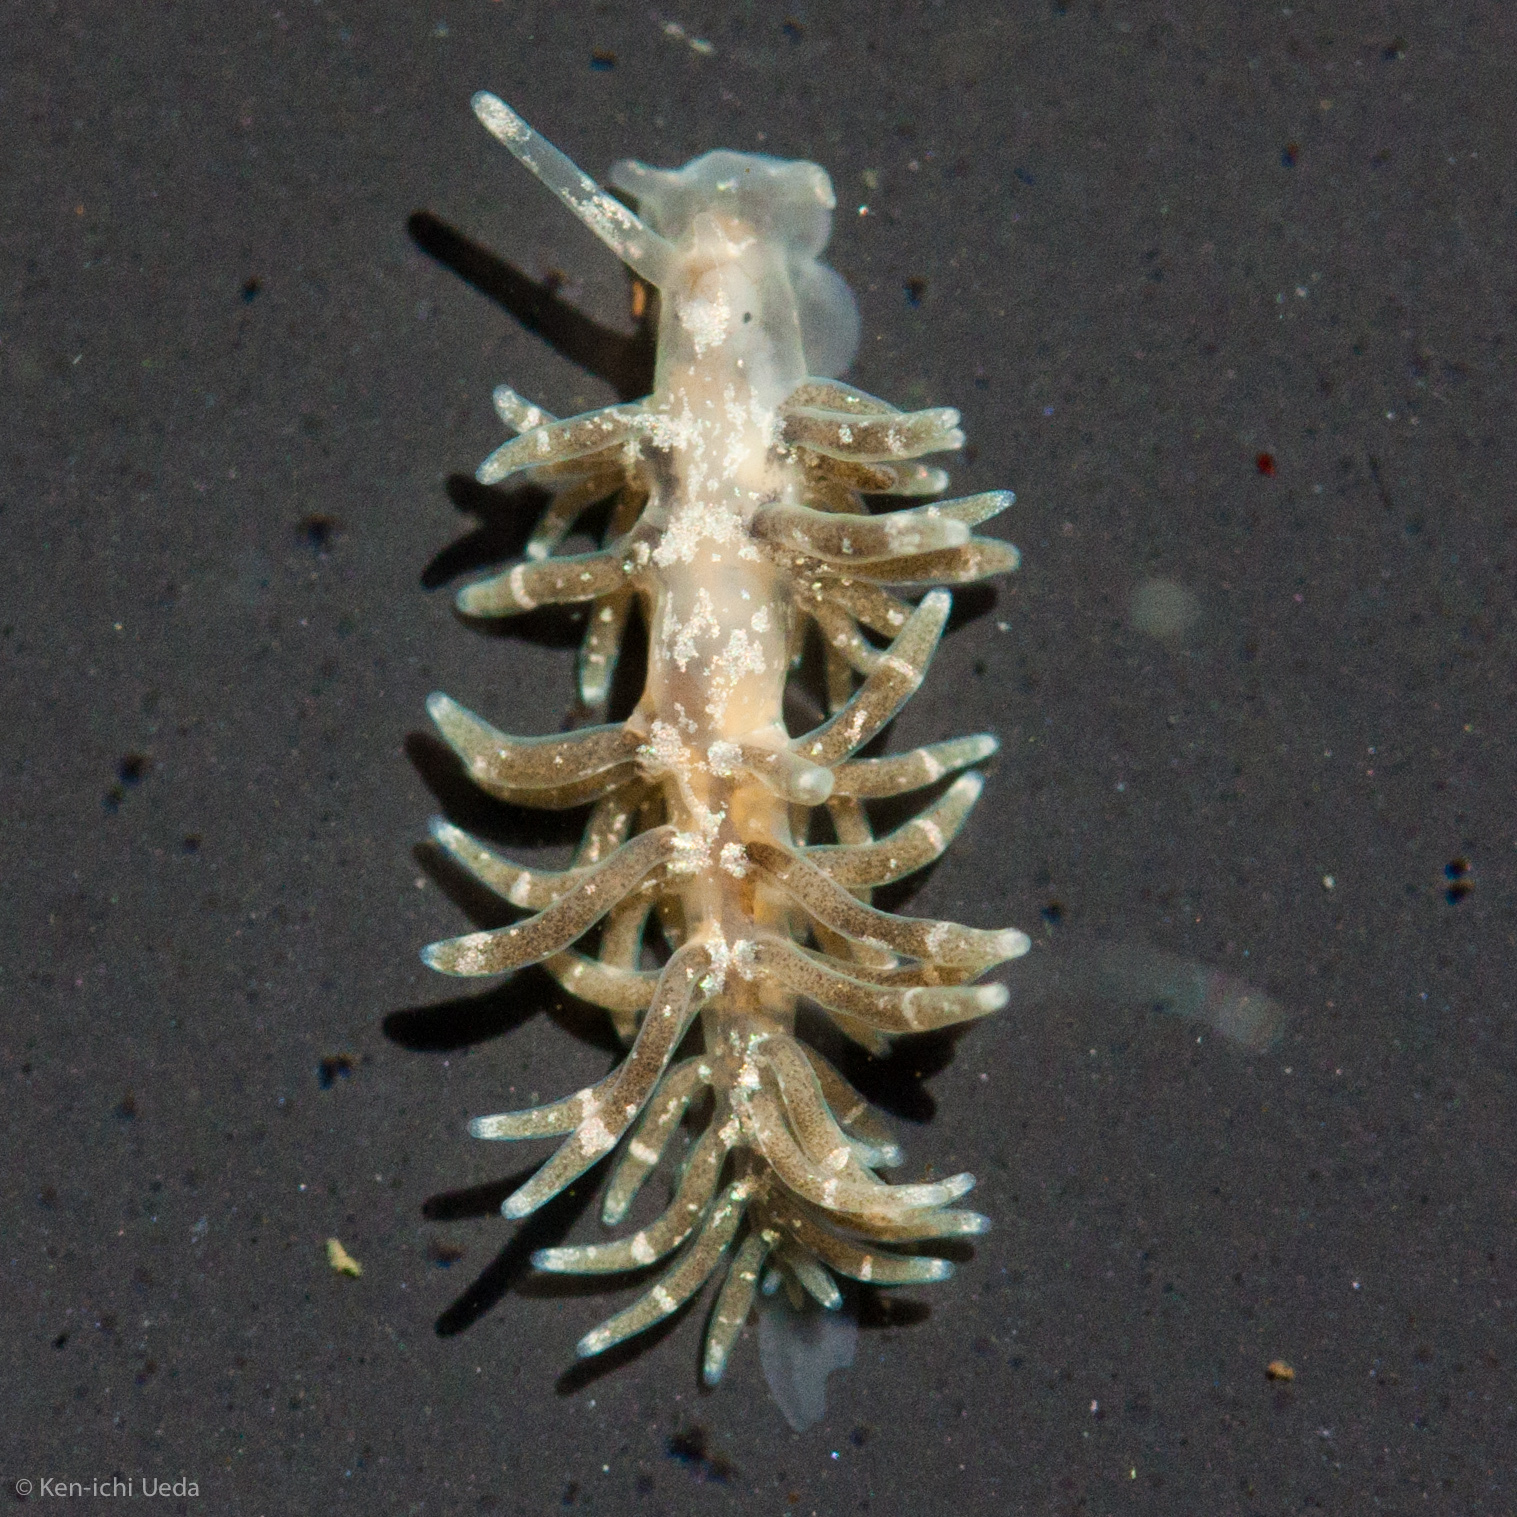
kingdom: Animalia
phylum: Mollusca
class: Gastropoda
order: Nudibranchia
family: Cuthonidae
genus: Cuthona
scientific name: Cuthona perca
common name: Lake merritt aeolis
